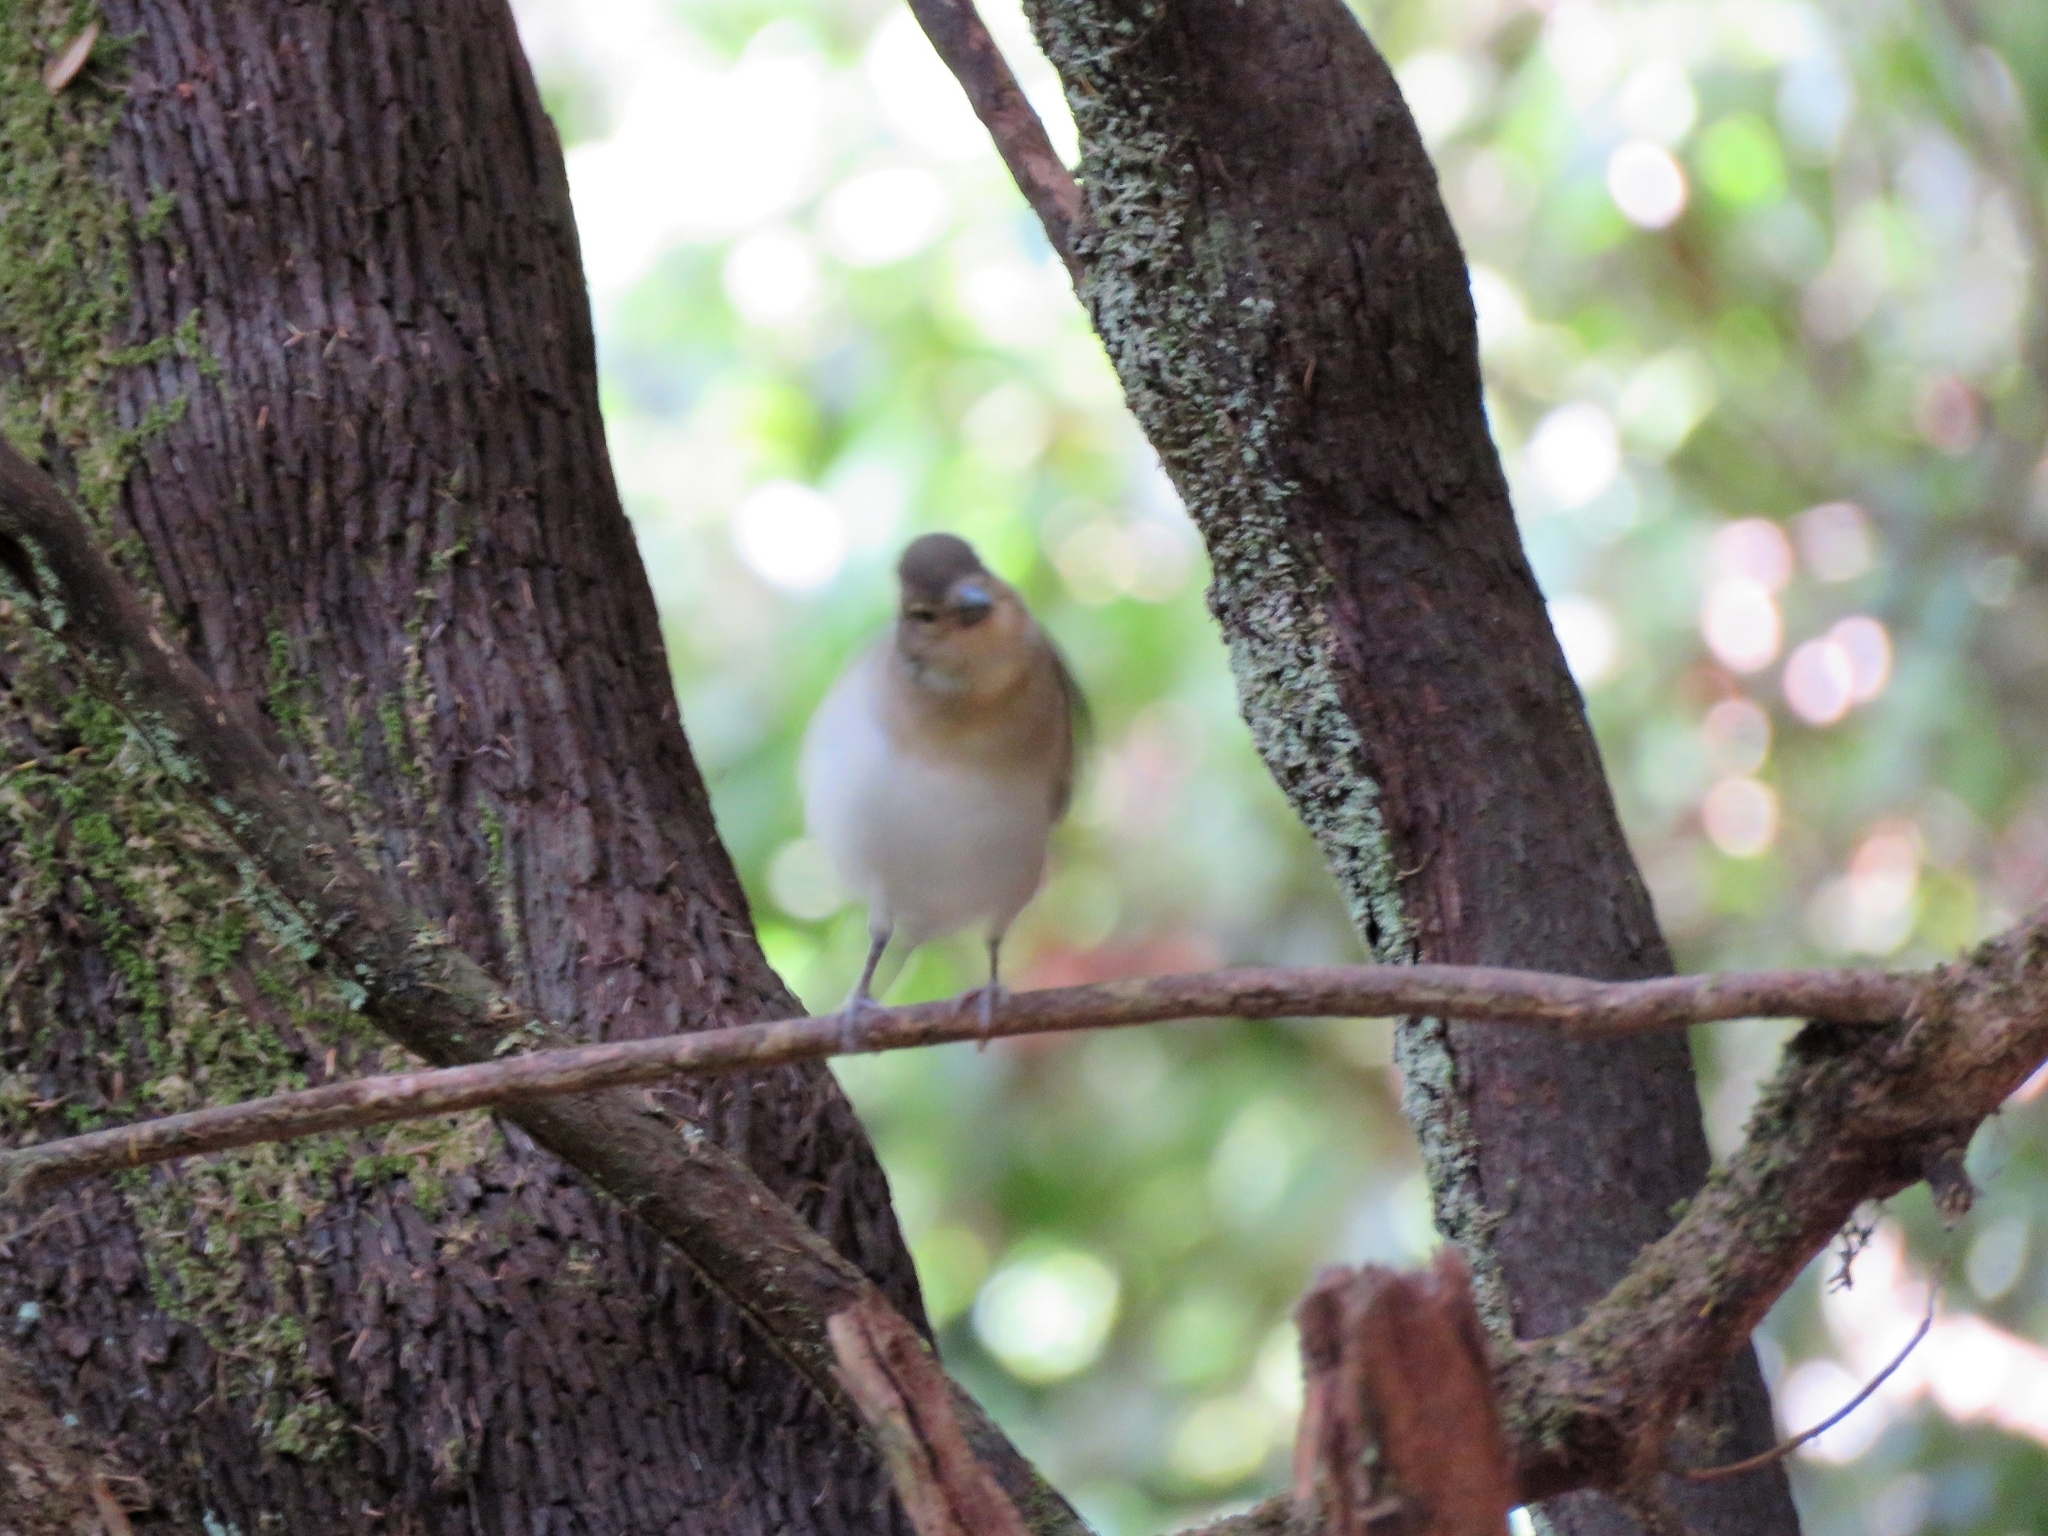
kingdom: Animalia
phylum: Chordata
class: Aves
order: Passeriformes
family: Fringillidae
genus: Fringilla
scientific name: Fringilla canariensis
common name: Canary islands chaffinch
